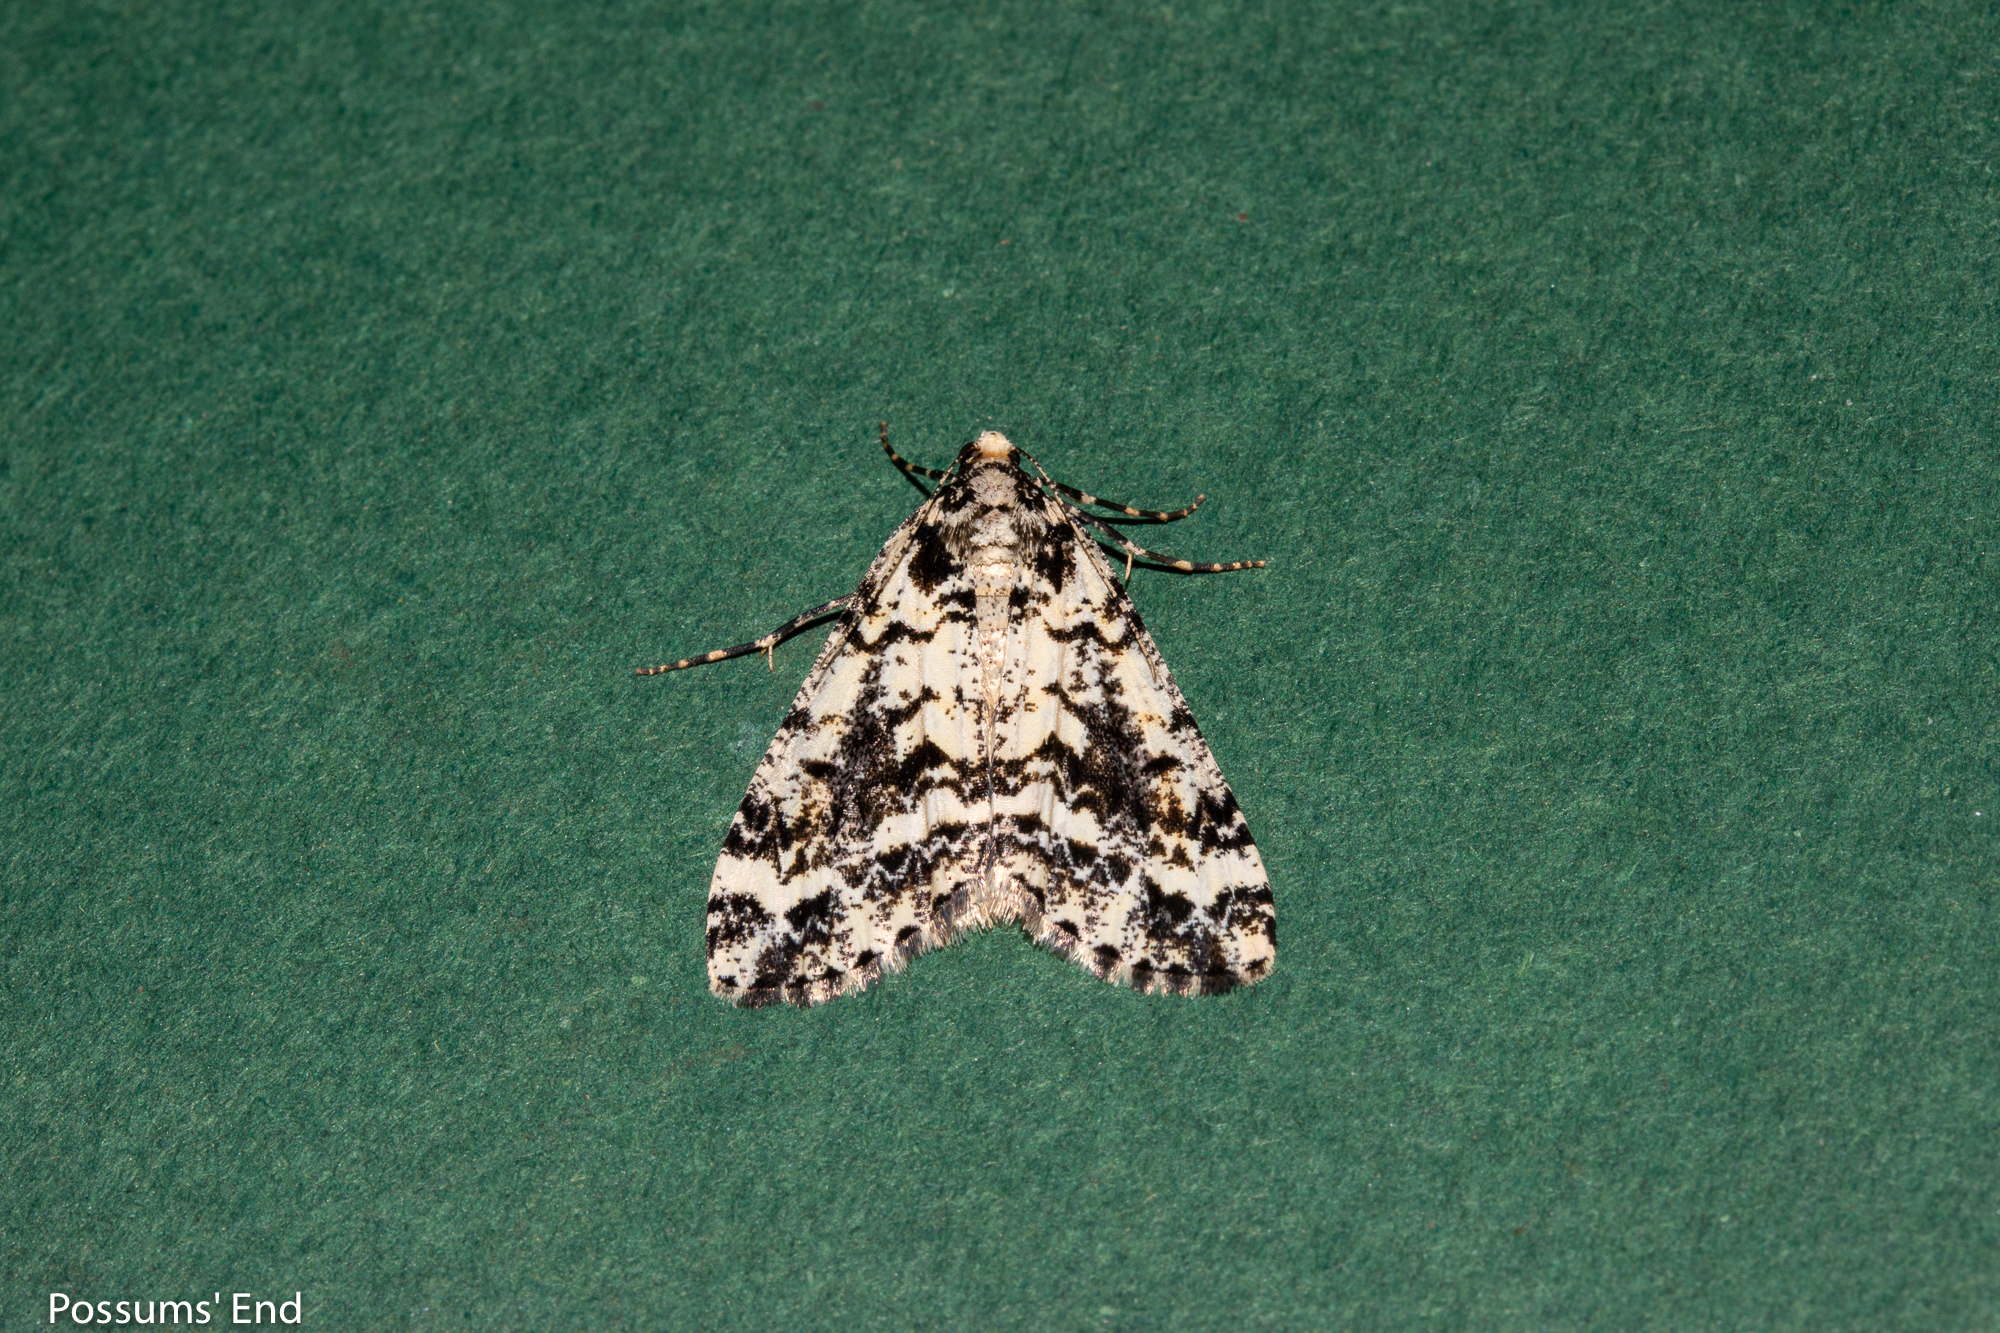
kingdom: Animalia
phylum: Arthropoda
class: Insecta
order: Lepidoptera
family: Geometridae
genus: Pseudocoremia
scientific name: Pseudocoremia leucelaea
